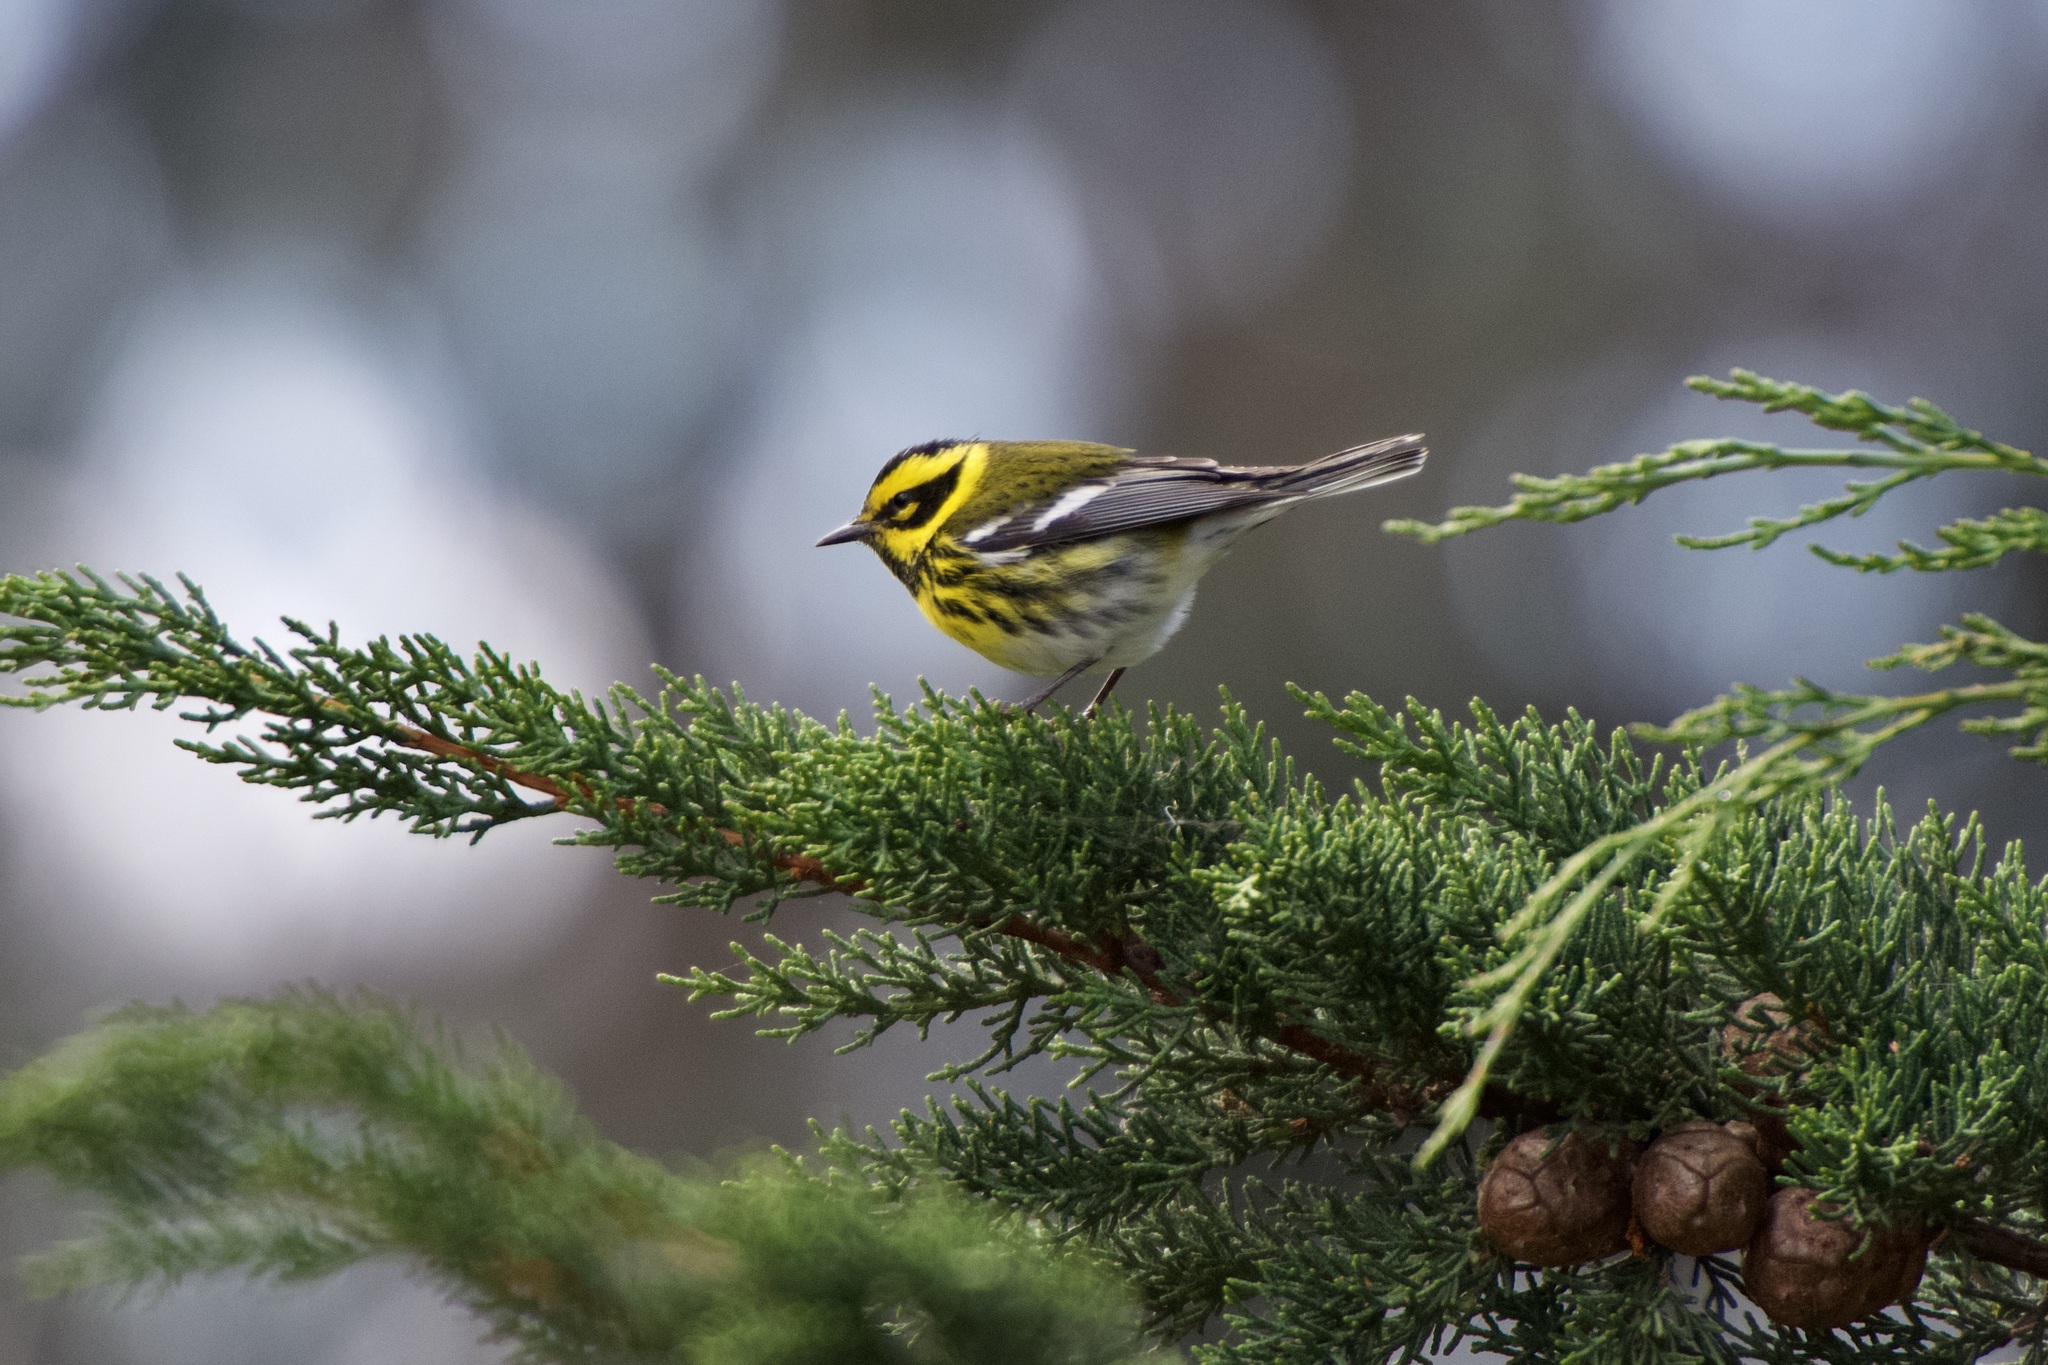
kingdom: Animalia
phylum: Chordata
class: Aves
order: Passeriformes
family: Parulidae
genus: Setophaga
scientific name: Setophaga townsendi
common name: Townsend's warbler
